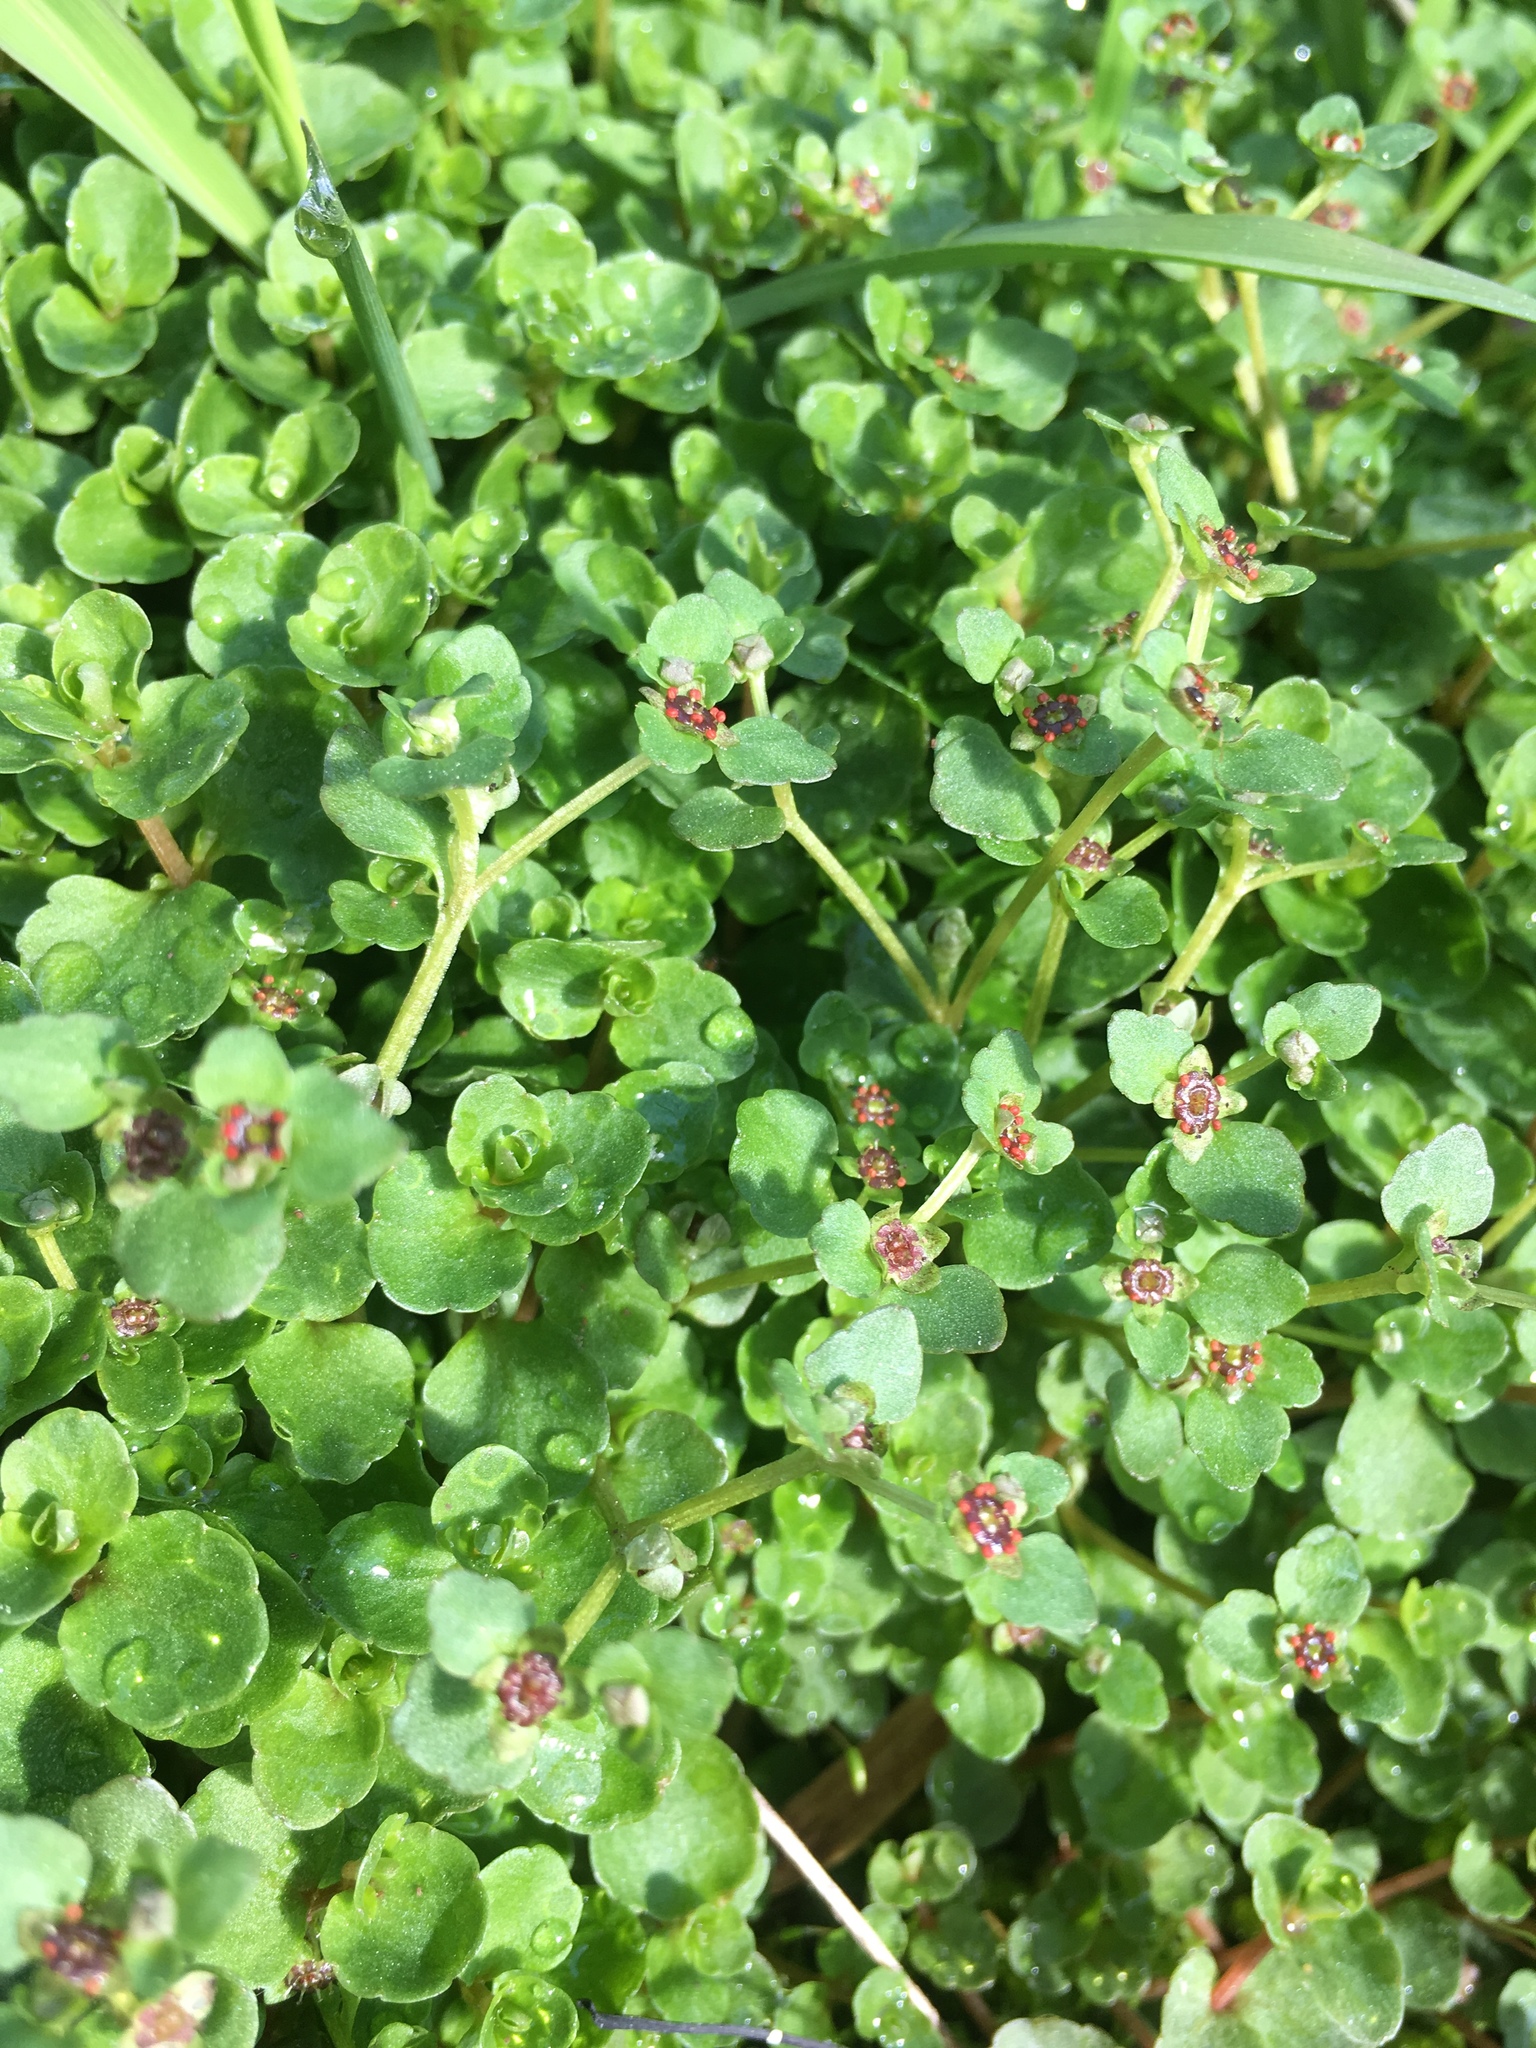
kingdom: Plantae
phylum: Tracheophyta
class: Magnoliopsida
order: Saxifragales
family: Saxifragaceae
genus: Chrysosplenium
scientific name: Chrysosplenium americanum
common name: American golden-saxifrage
